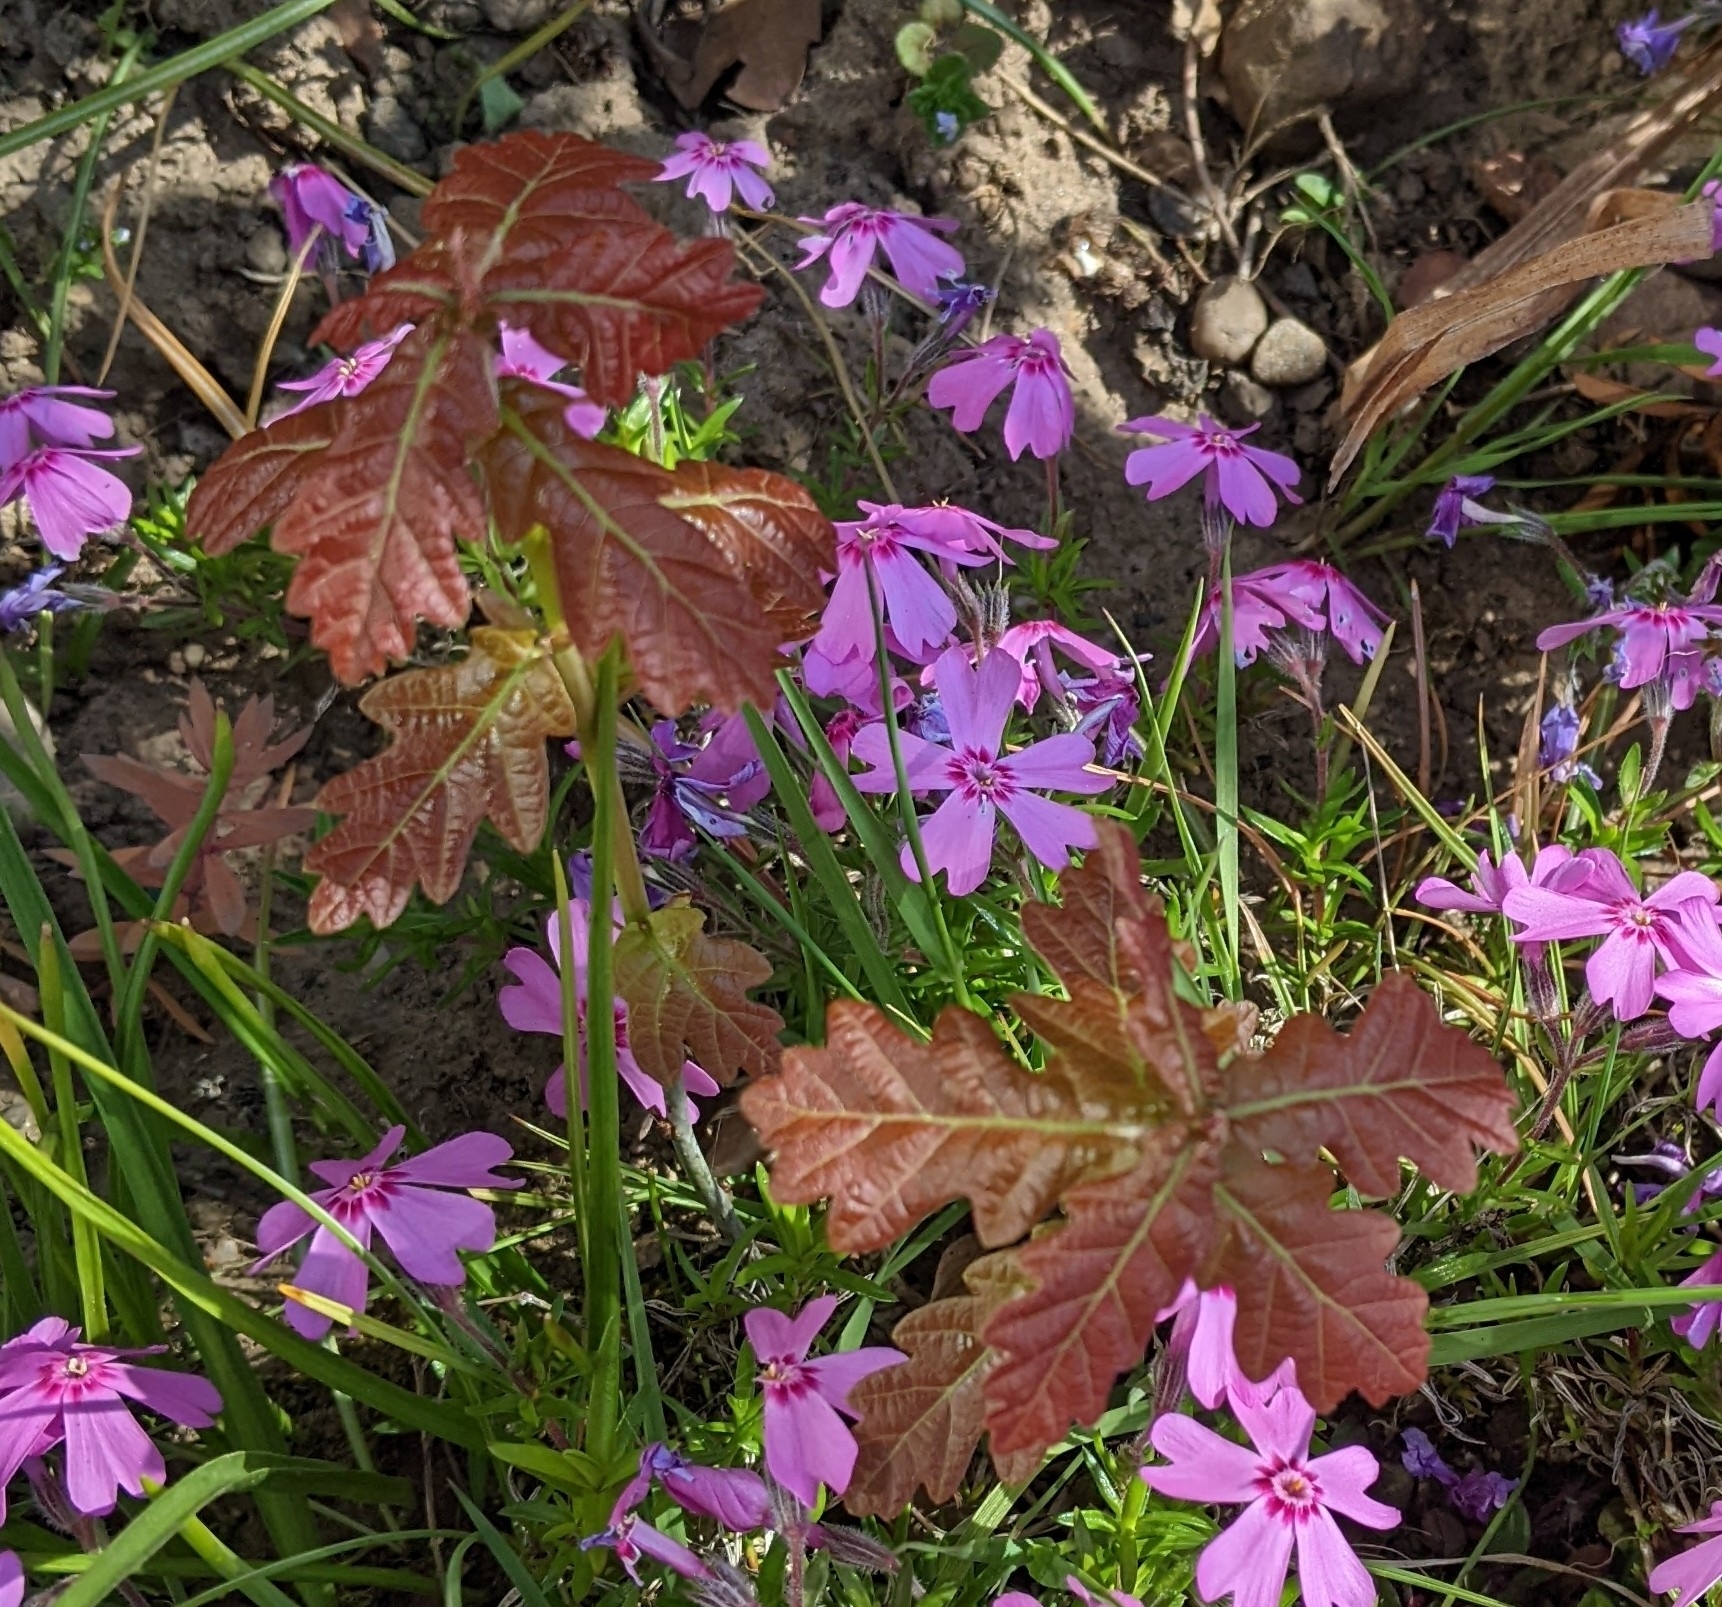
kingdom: Plantae
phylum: Tracheophyta
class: Magnoliopsida
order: Fagales
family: Fagaceae
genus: Quercus
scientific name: Quercus robur
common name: Pedunculate oak
